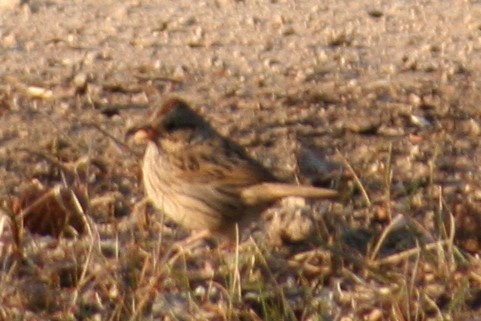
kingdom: Animalia
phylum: Chordata
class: Aves
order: Passeriformes
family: Passerellidae
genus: Melospiza
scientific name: Melospiza lincolnii
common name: Lincoln's sparrow
